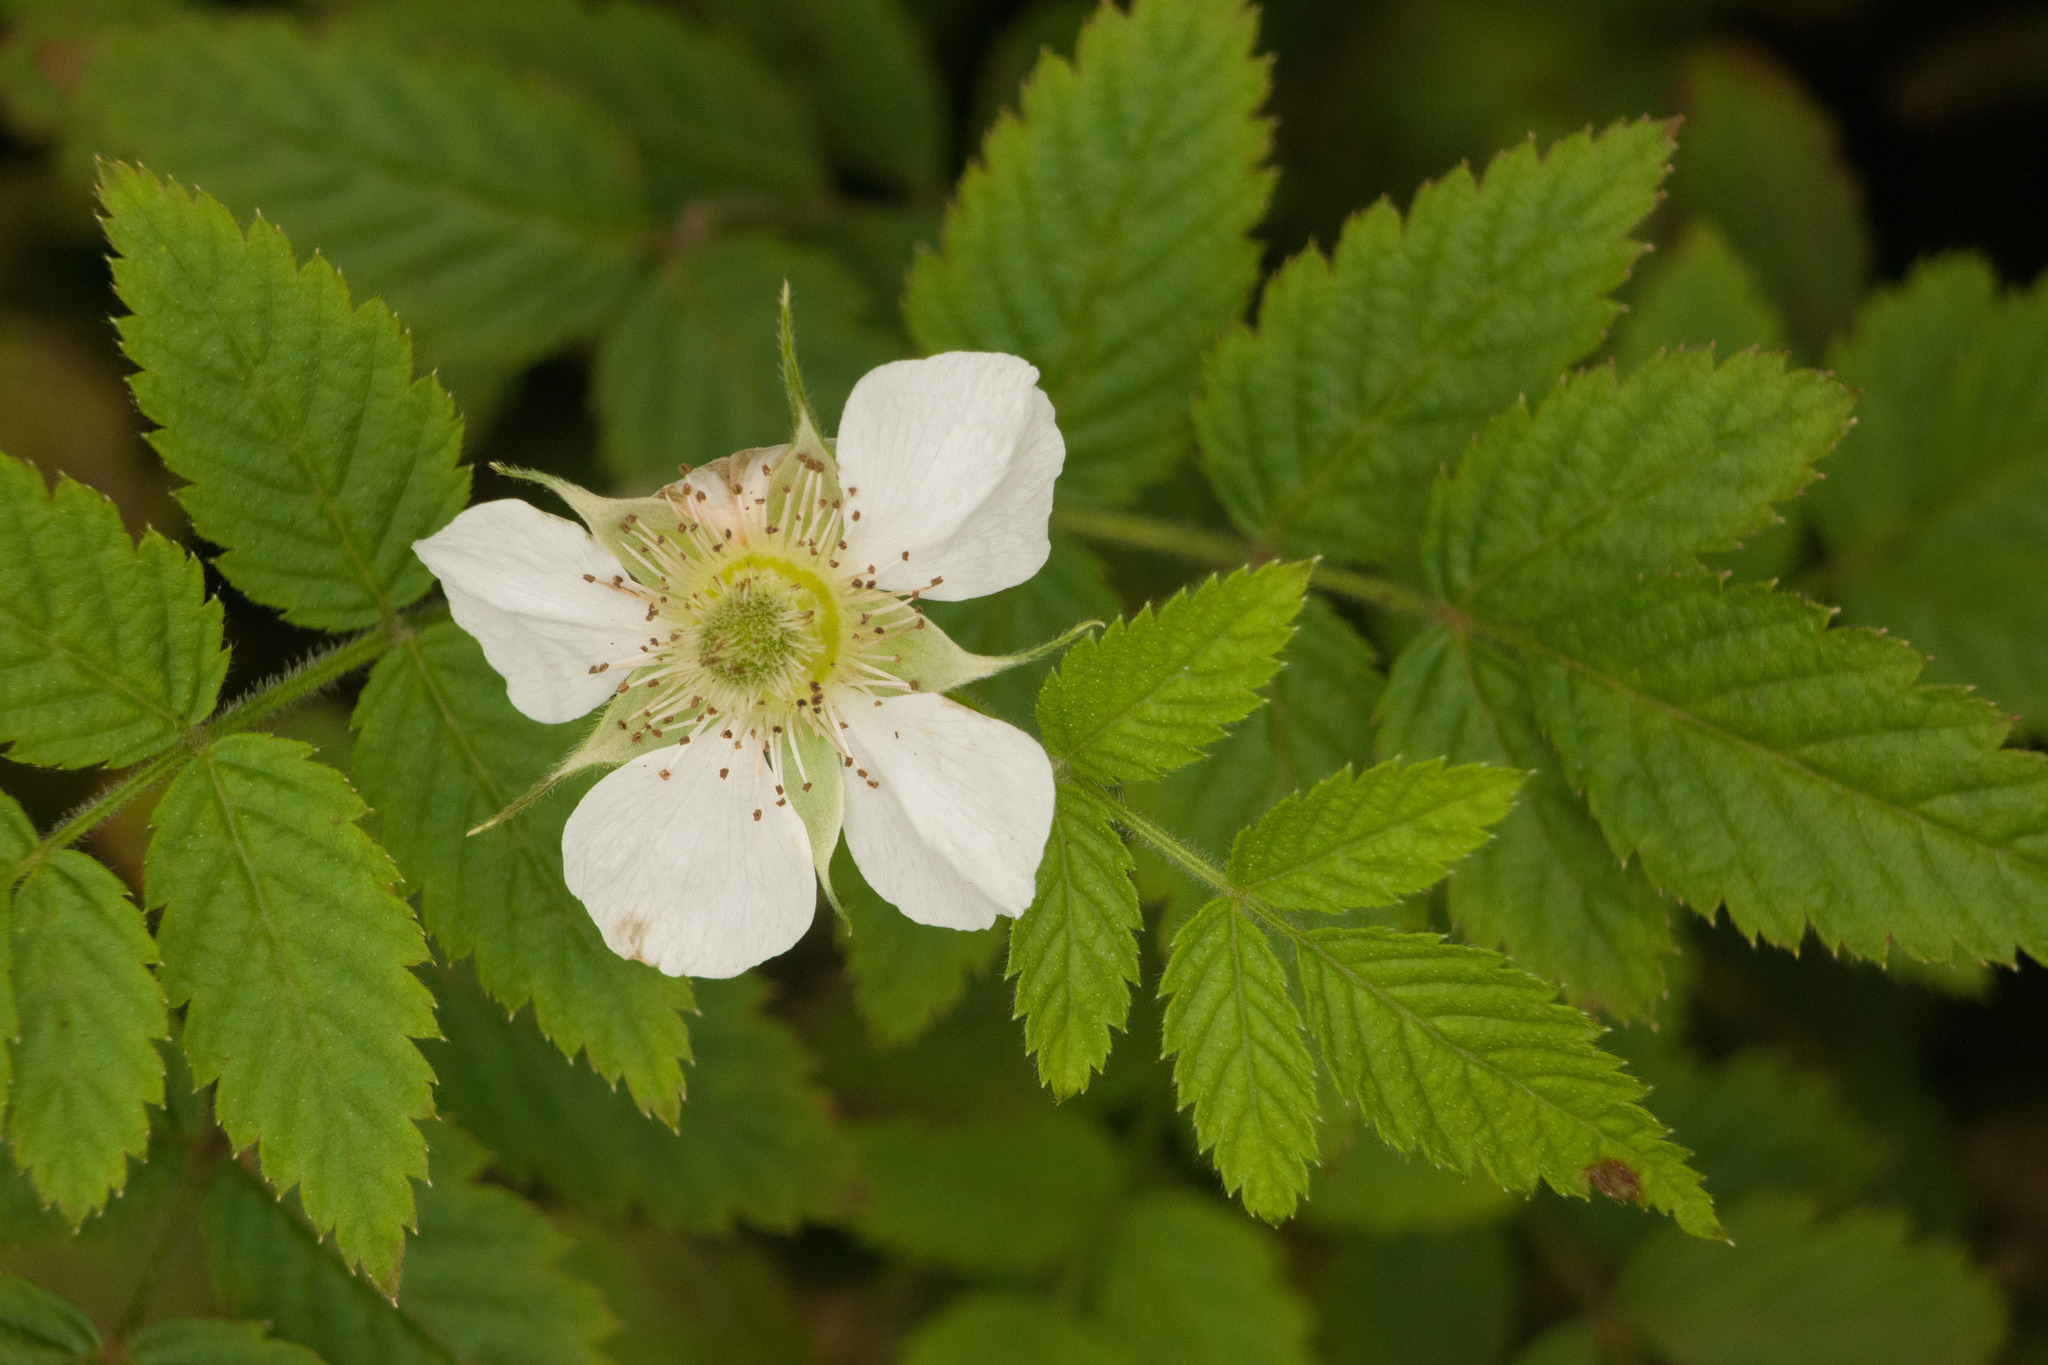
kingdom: Plantae
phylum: Tracheophyta
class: Magnoliopsida
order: Rosales
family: Rosaceae
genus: Rubus
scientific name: Rubus rosifolius
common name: Roseleaf raspberry
